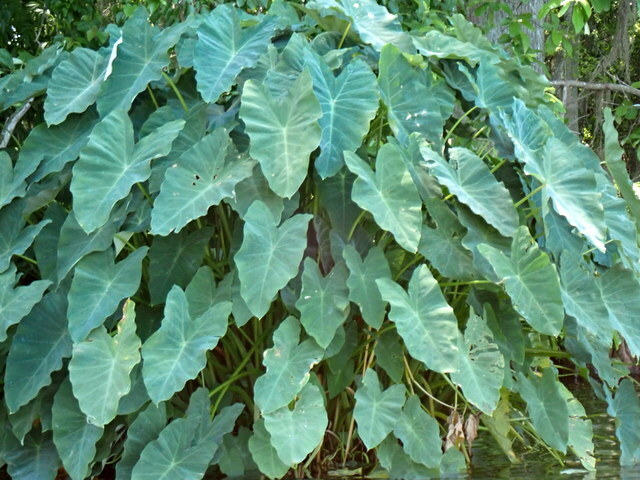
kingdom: Plantae
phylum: Tracheophyta
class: Liliopsida
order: Alismatales
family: Araceae
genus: Colocasia
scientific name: Colocasia esculenta
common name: Taro
